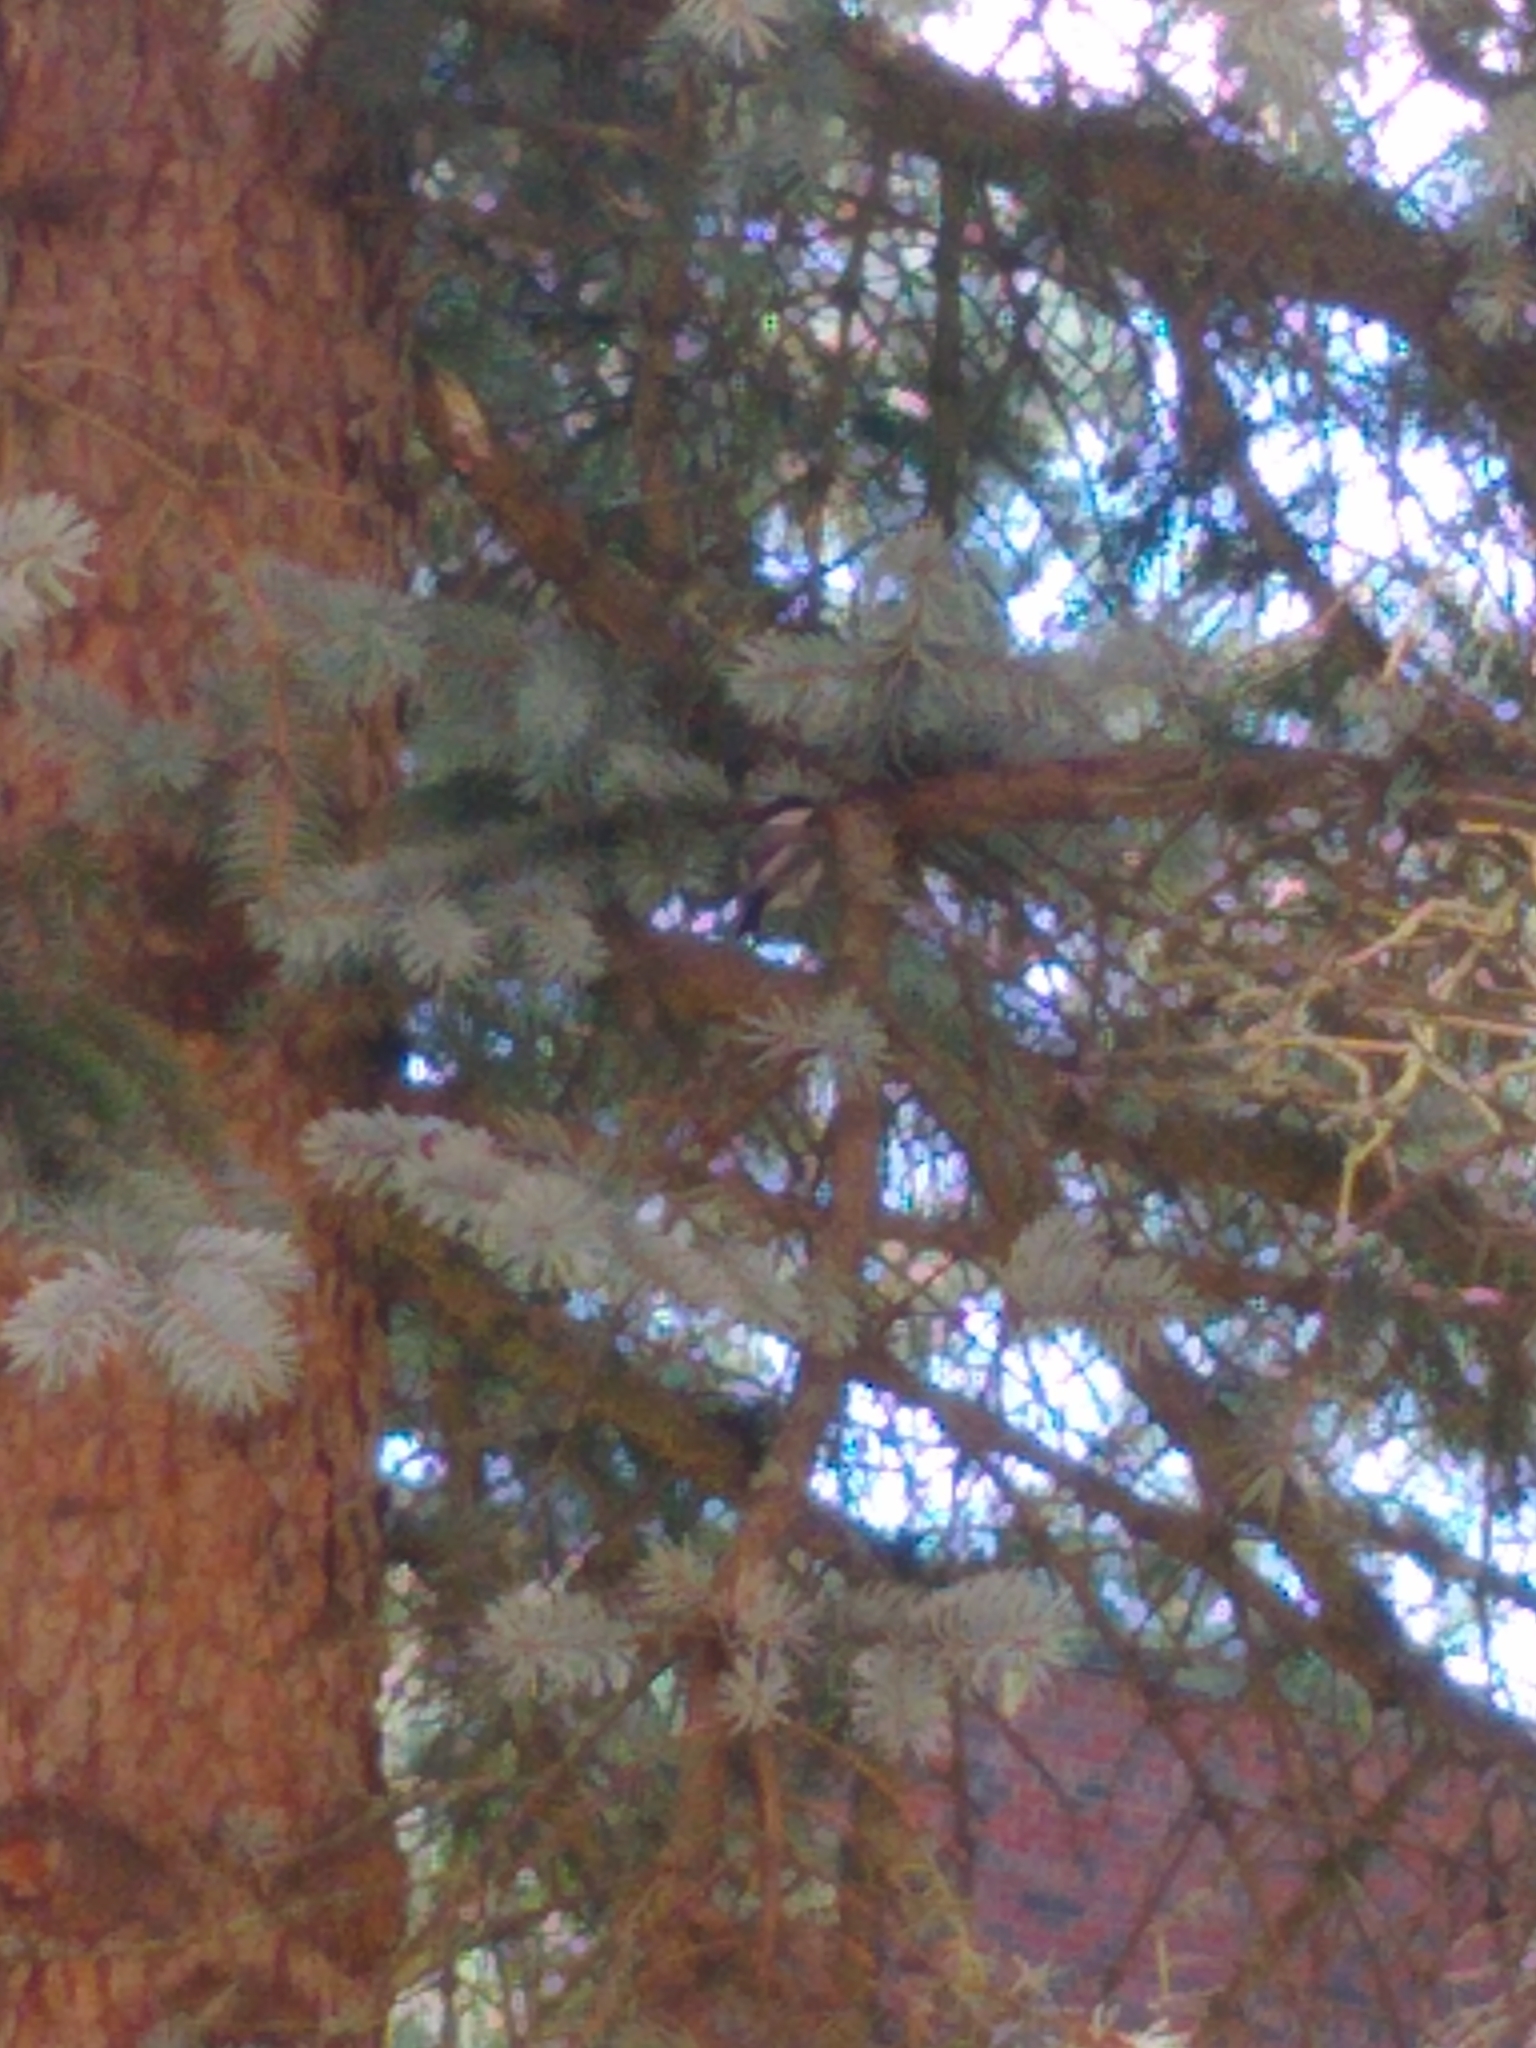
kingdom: Animalia
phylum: Chordata
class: Aves
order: Passeriformes
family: Paridae
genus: Poecile
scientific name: Poecile atricapillus
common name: Black-capped chickadee
